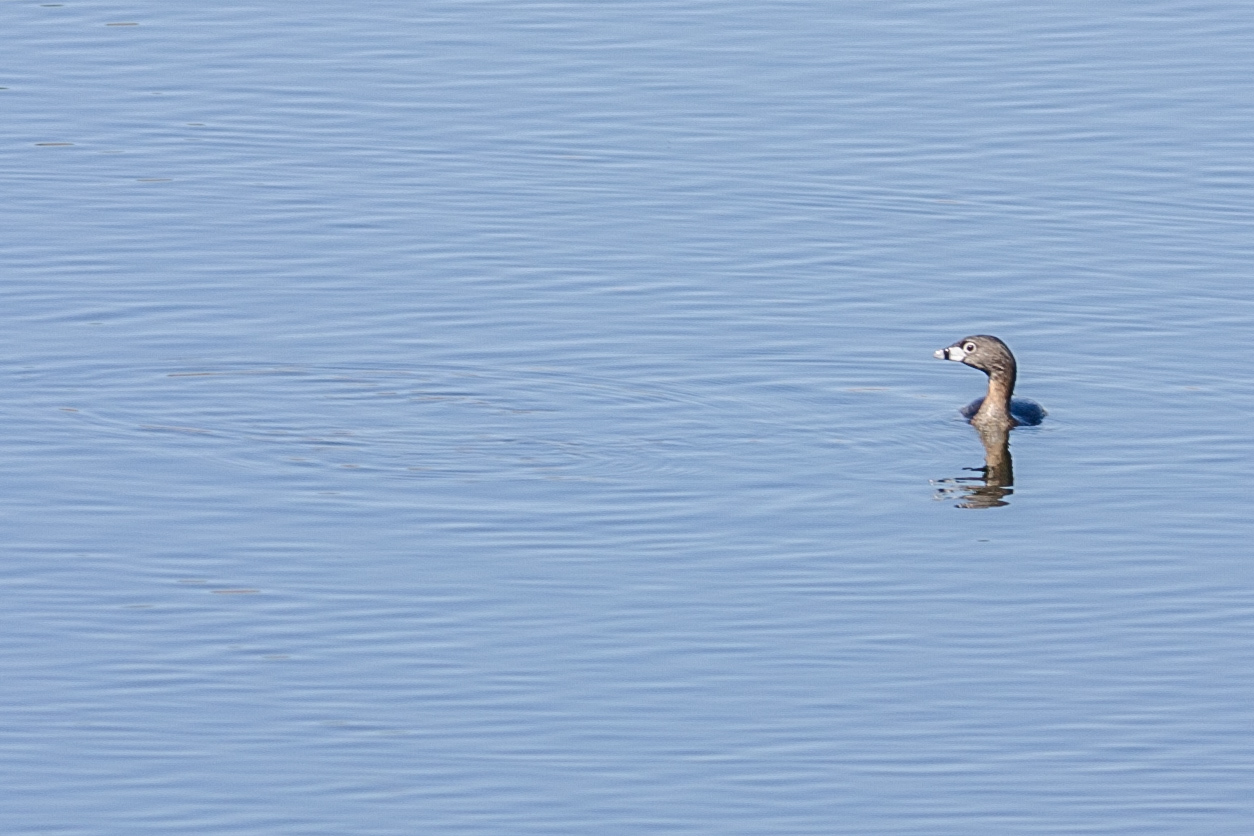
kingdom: Animalia
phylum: Chordata
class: Aves
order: Podicipediformes
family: Podicipedidae
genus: Podilymbus
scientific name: Podilymbus podiceps
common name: Pied-billed grebe
